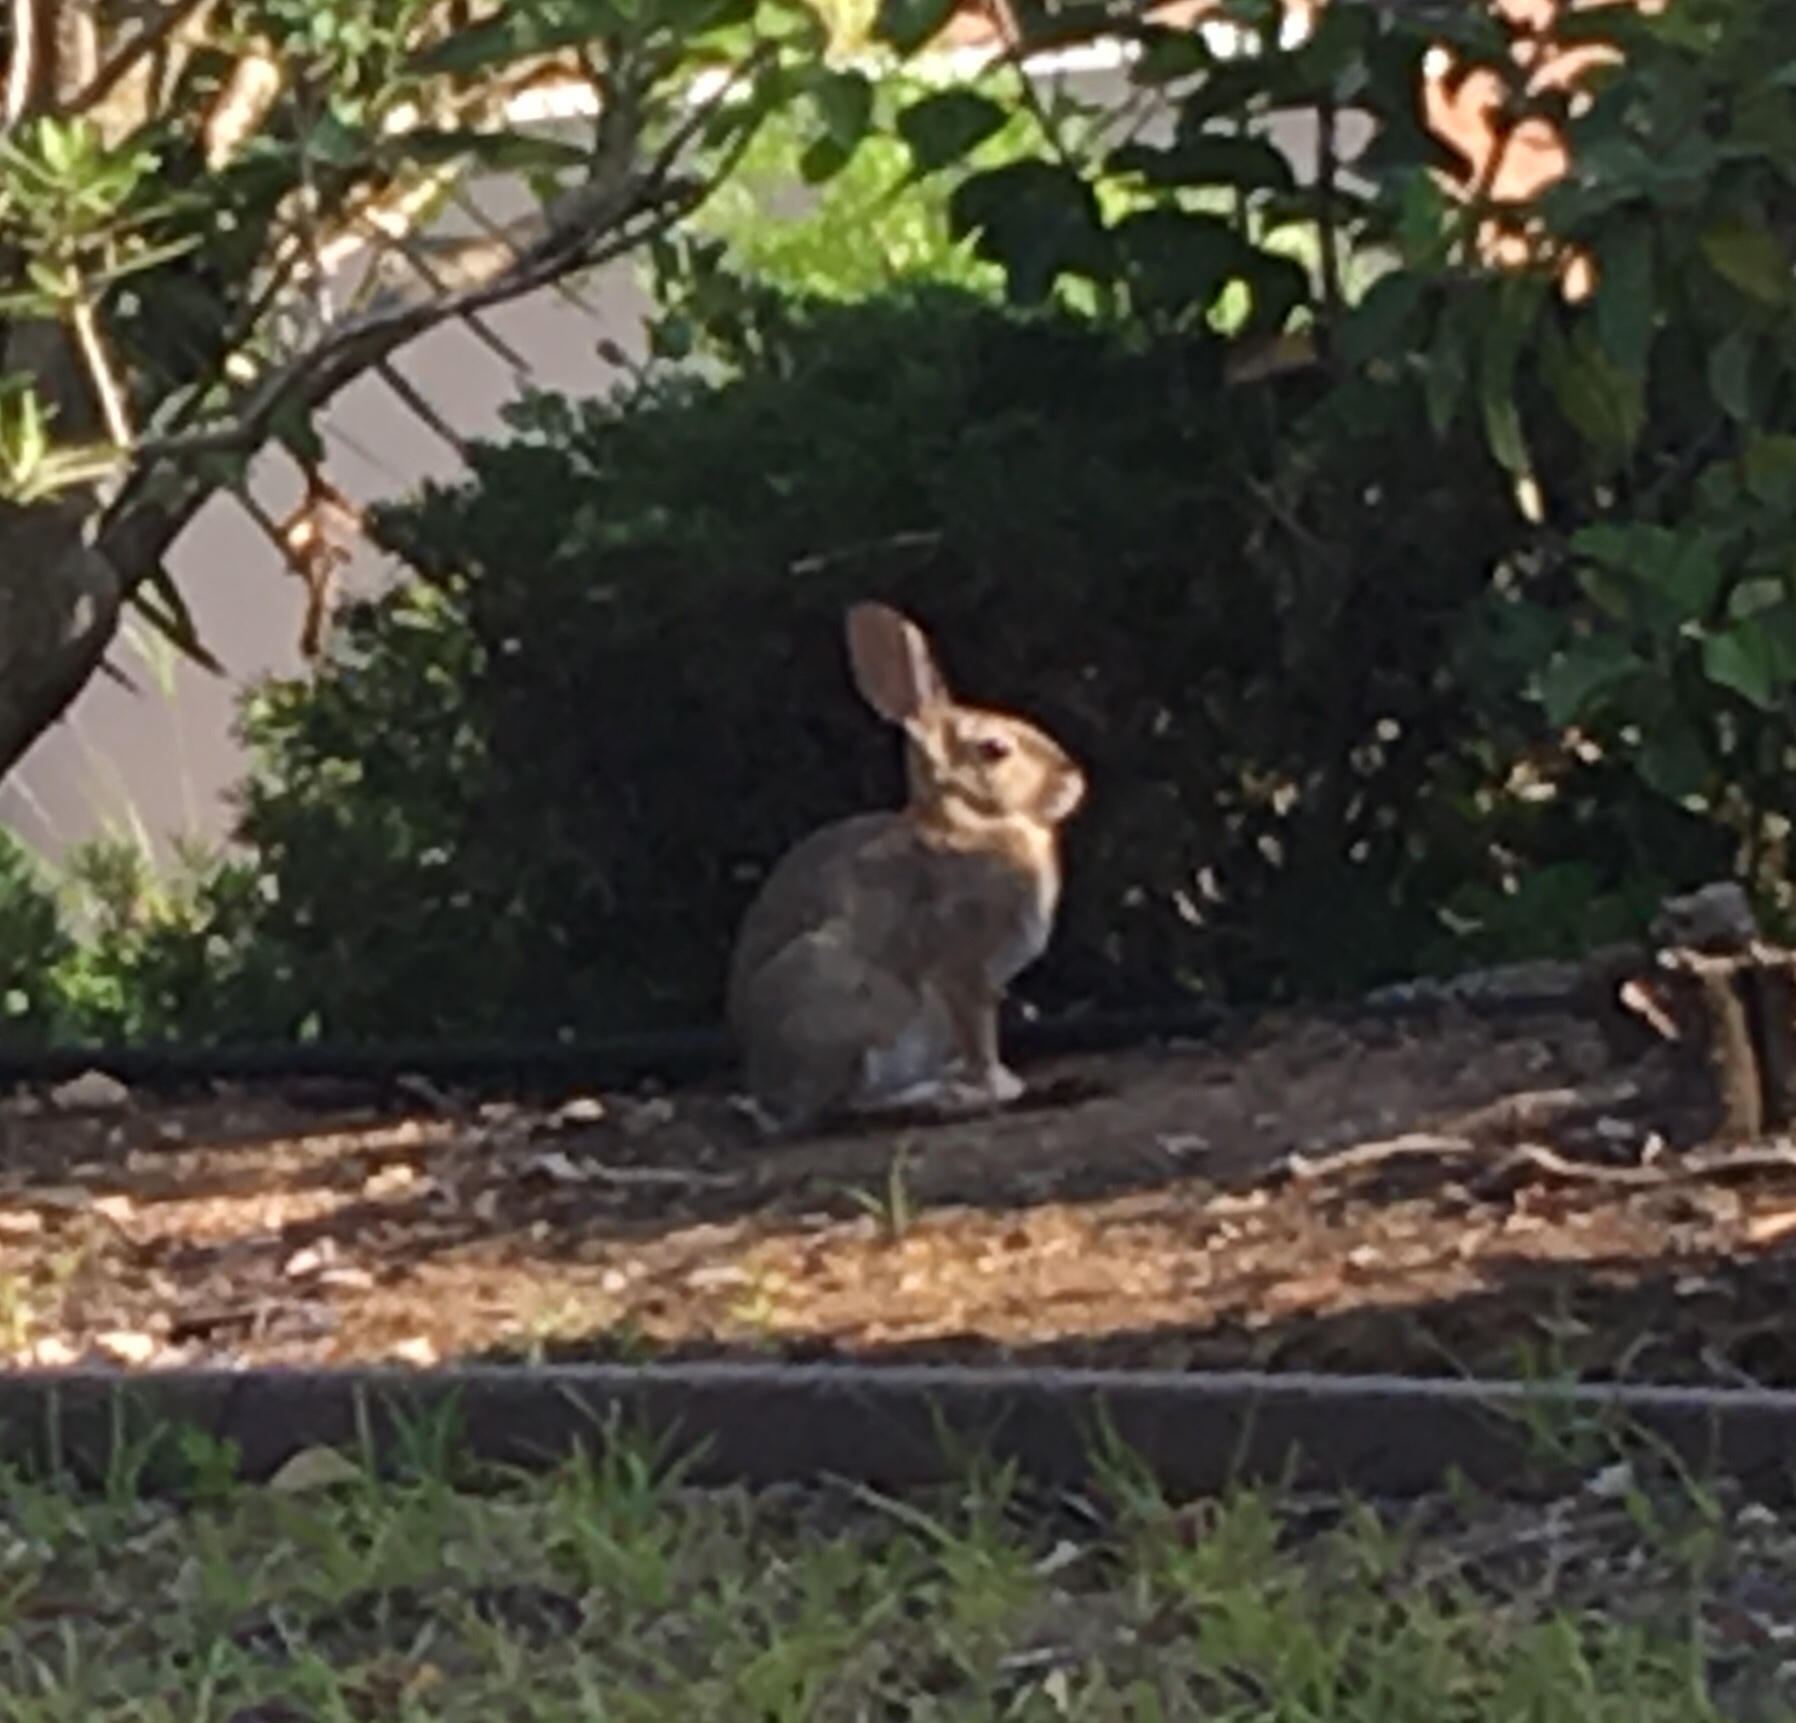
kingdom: Animalia
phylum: Chordata
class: Mammalia
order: Lagomorpha
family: Leporidae
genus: Sylvilagus
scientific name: Sylvilagus audubonii
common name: Desert cottontail
